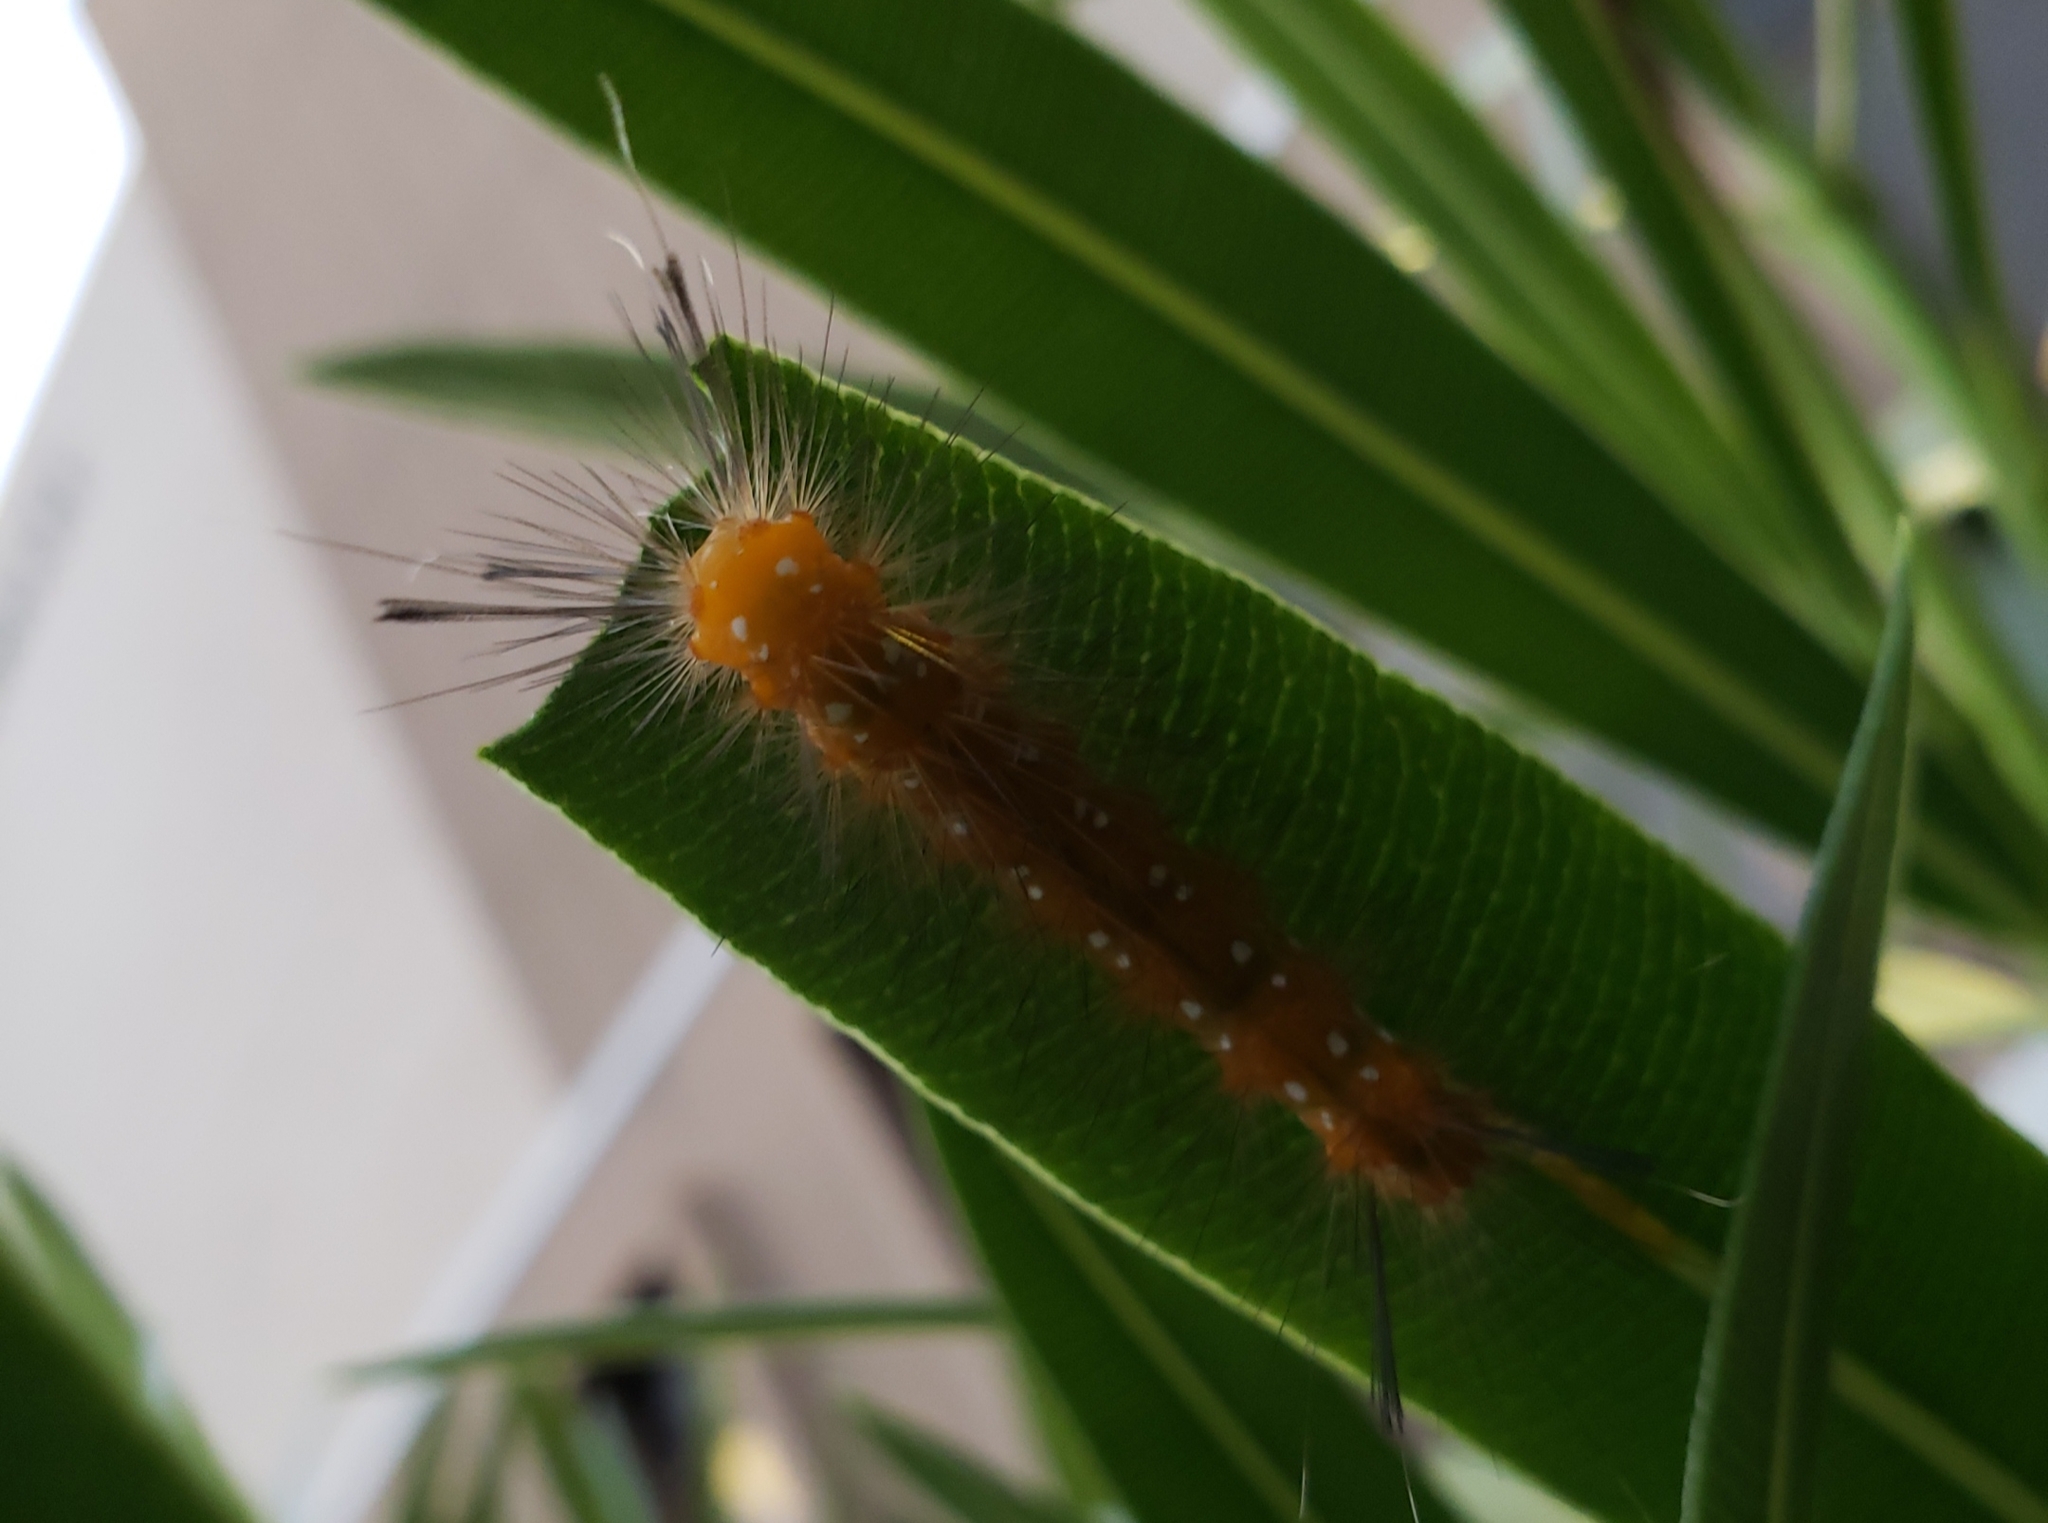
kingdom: Animalia
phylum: Arthropoda
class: Insecta
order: Lepidoptera
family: Erebidae
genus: Empyreuma
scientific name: Empyreuma pugione
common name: Spotted oleander caterpillar moth
